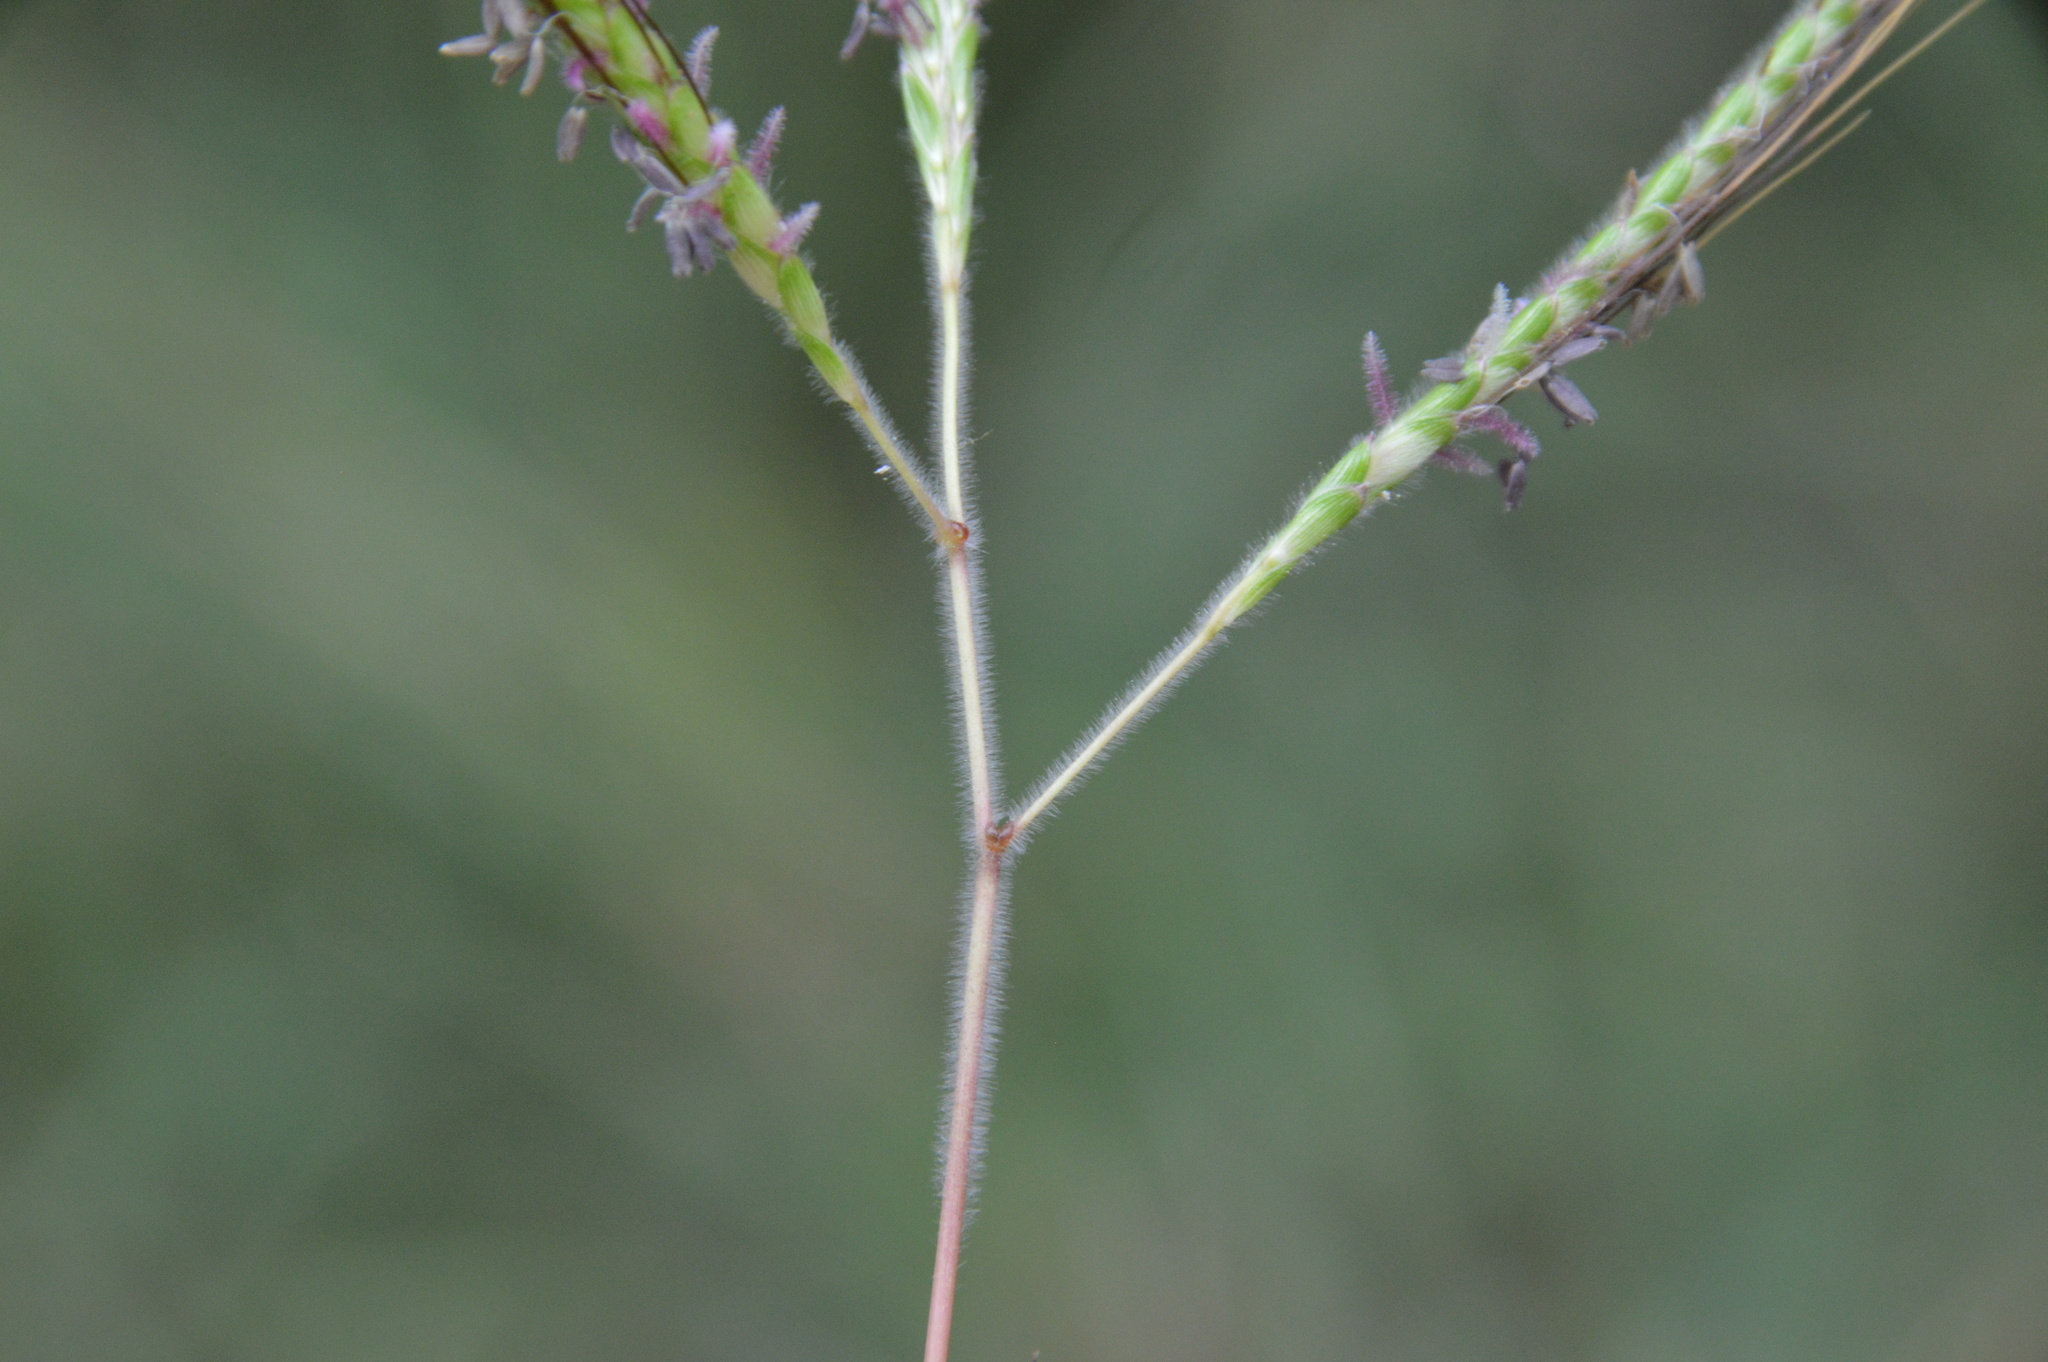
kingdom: Plantae
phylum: Tracheophyta
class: Liliopsida
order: Poales
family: Poaceae
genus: Dichanthium
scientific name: Dichanthium aristatum
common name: Angleton bluestem
